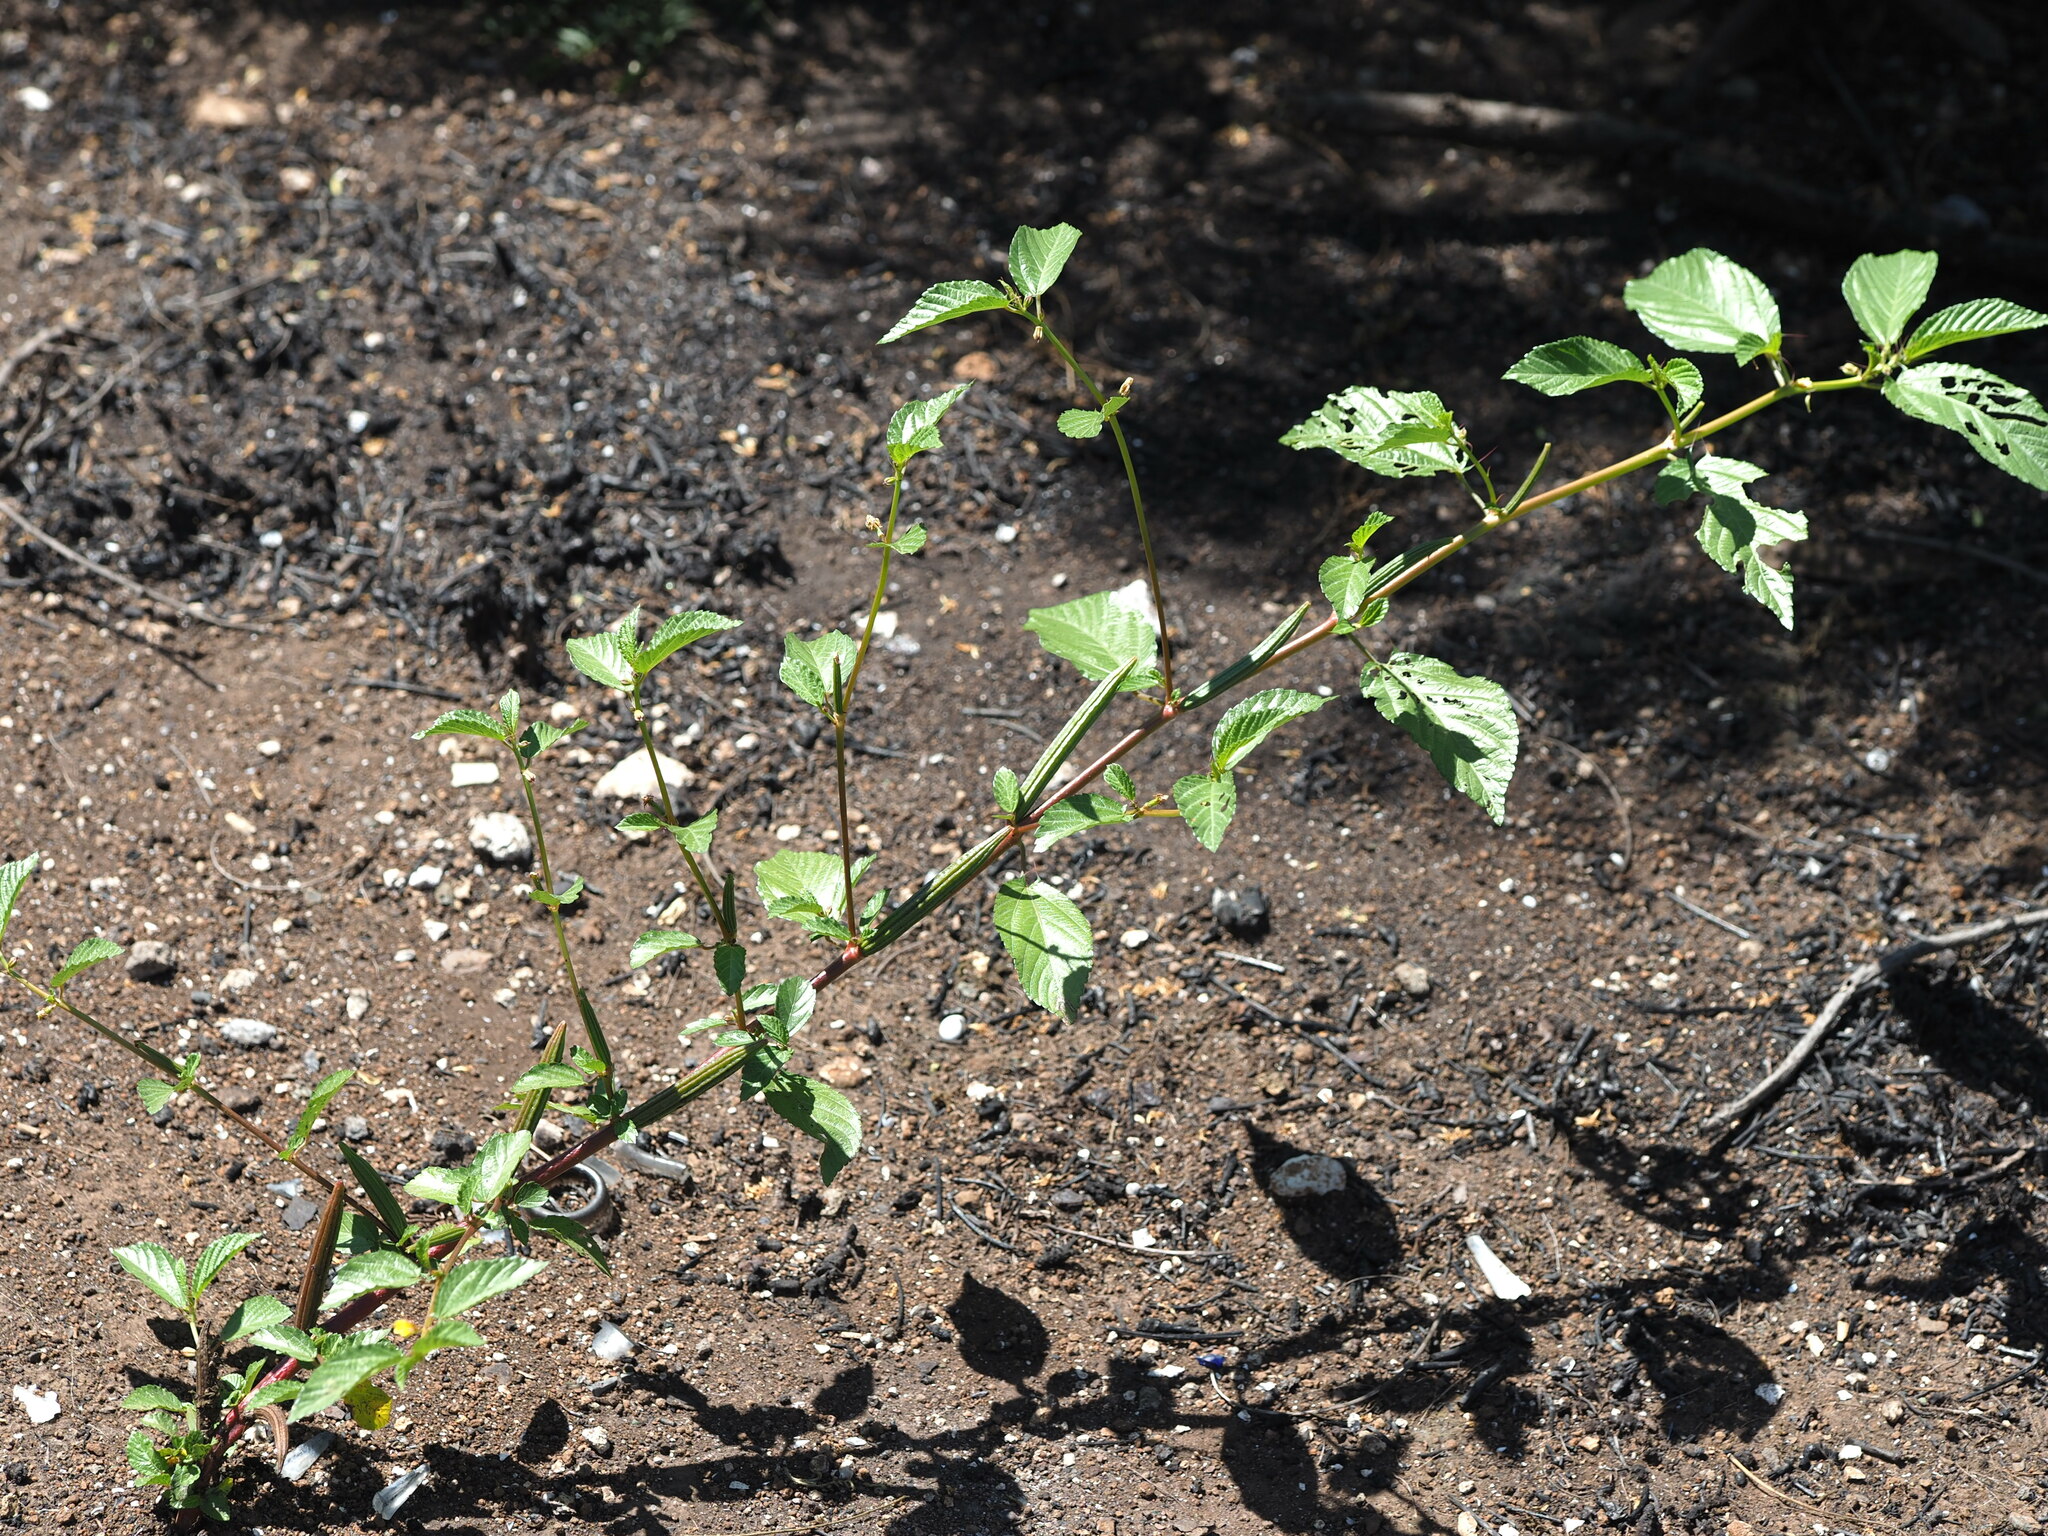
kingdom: Plantae
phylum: Tracheophyta
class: Magnoliopsida
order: Malvales
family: Malvaceae
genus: Corchorus
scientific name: Corchorus olitorius
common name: Tossa jute
